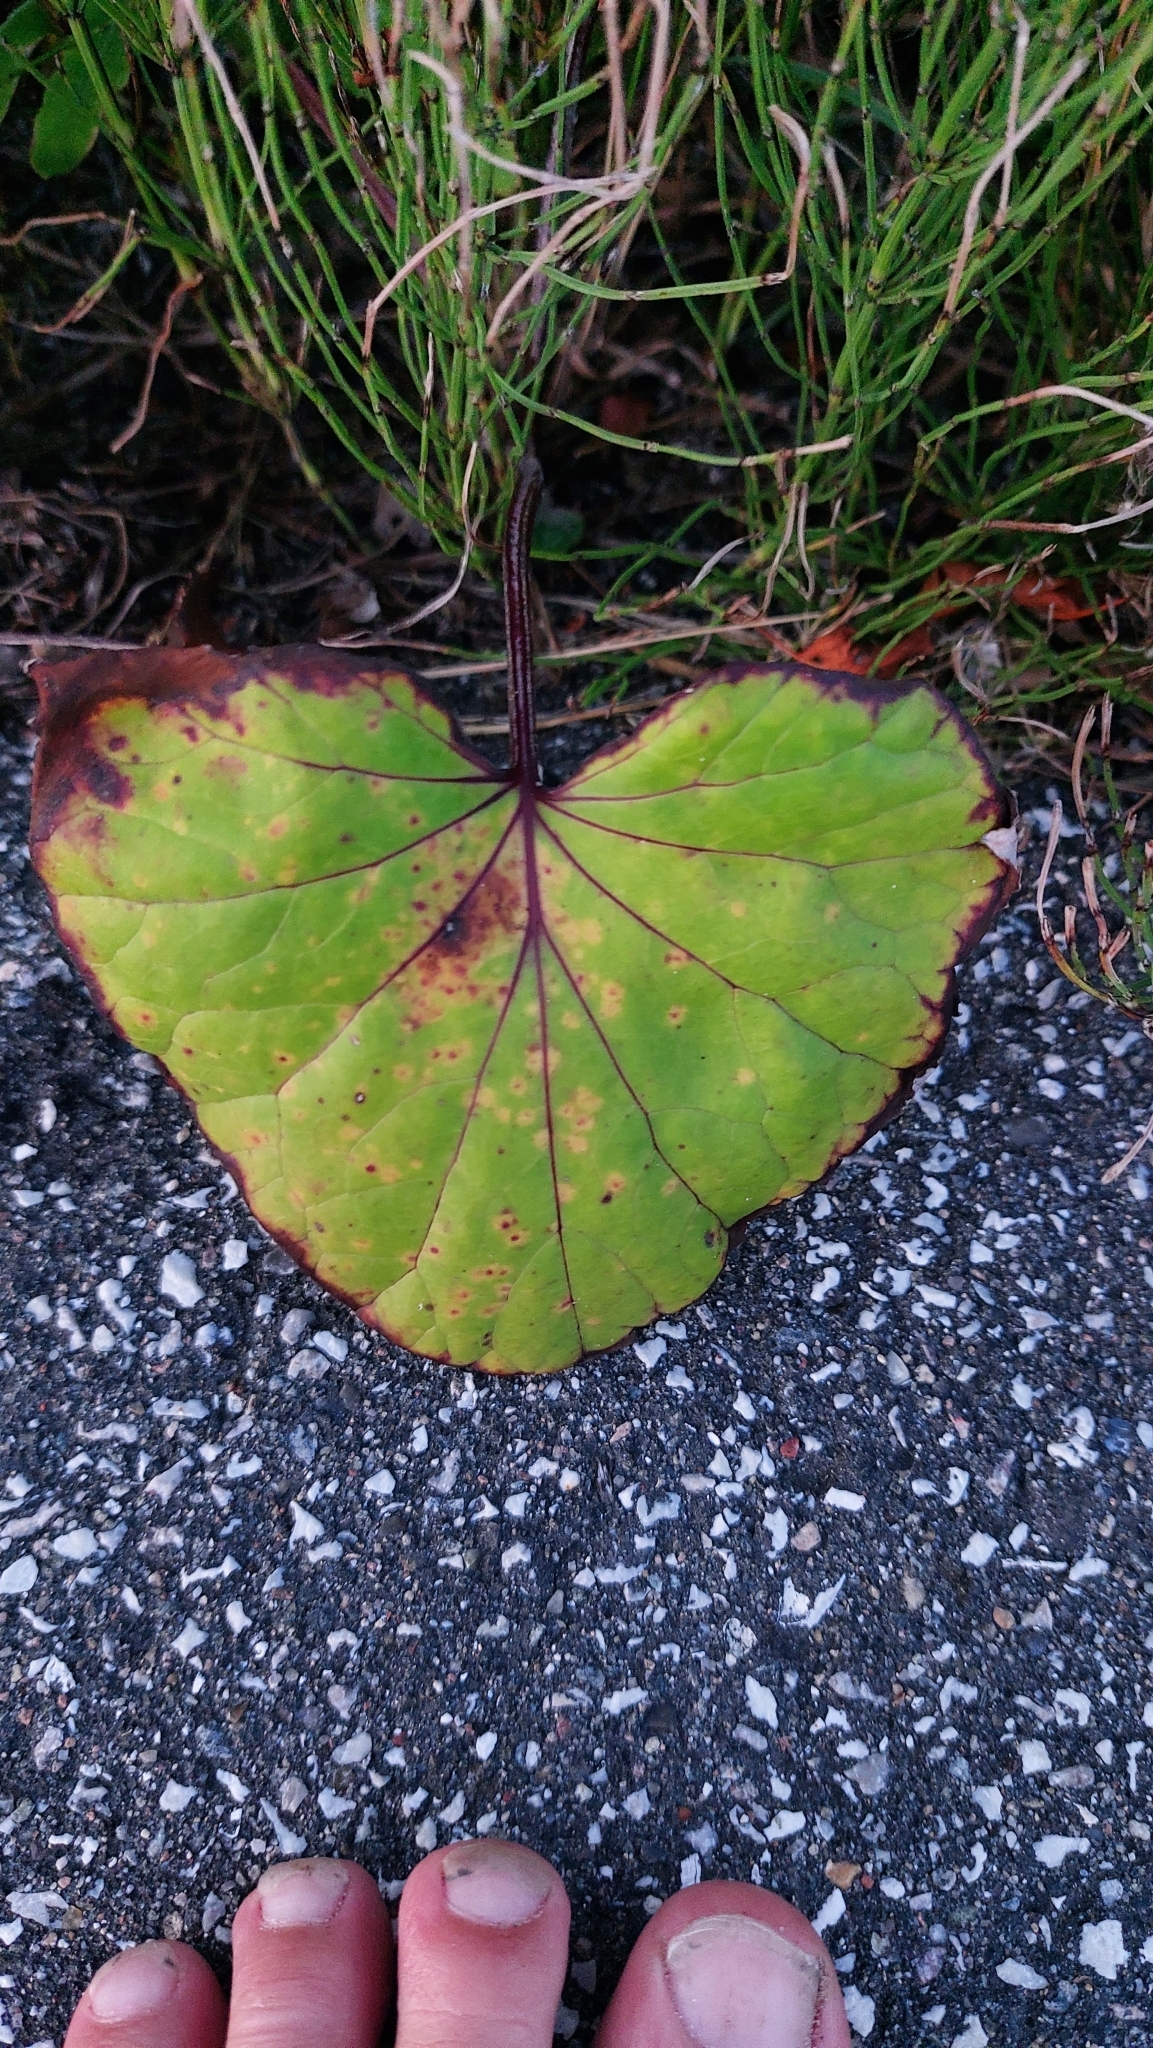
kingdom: Plantae
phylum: Tracheophyta
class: Magnoliopsida
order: Asterales
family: Asteraceae
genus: Tussilago
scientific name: Tussilago farfara
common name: Coltsfoot
